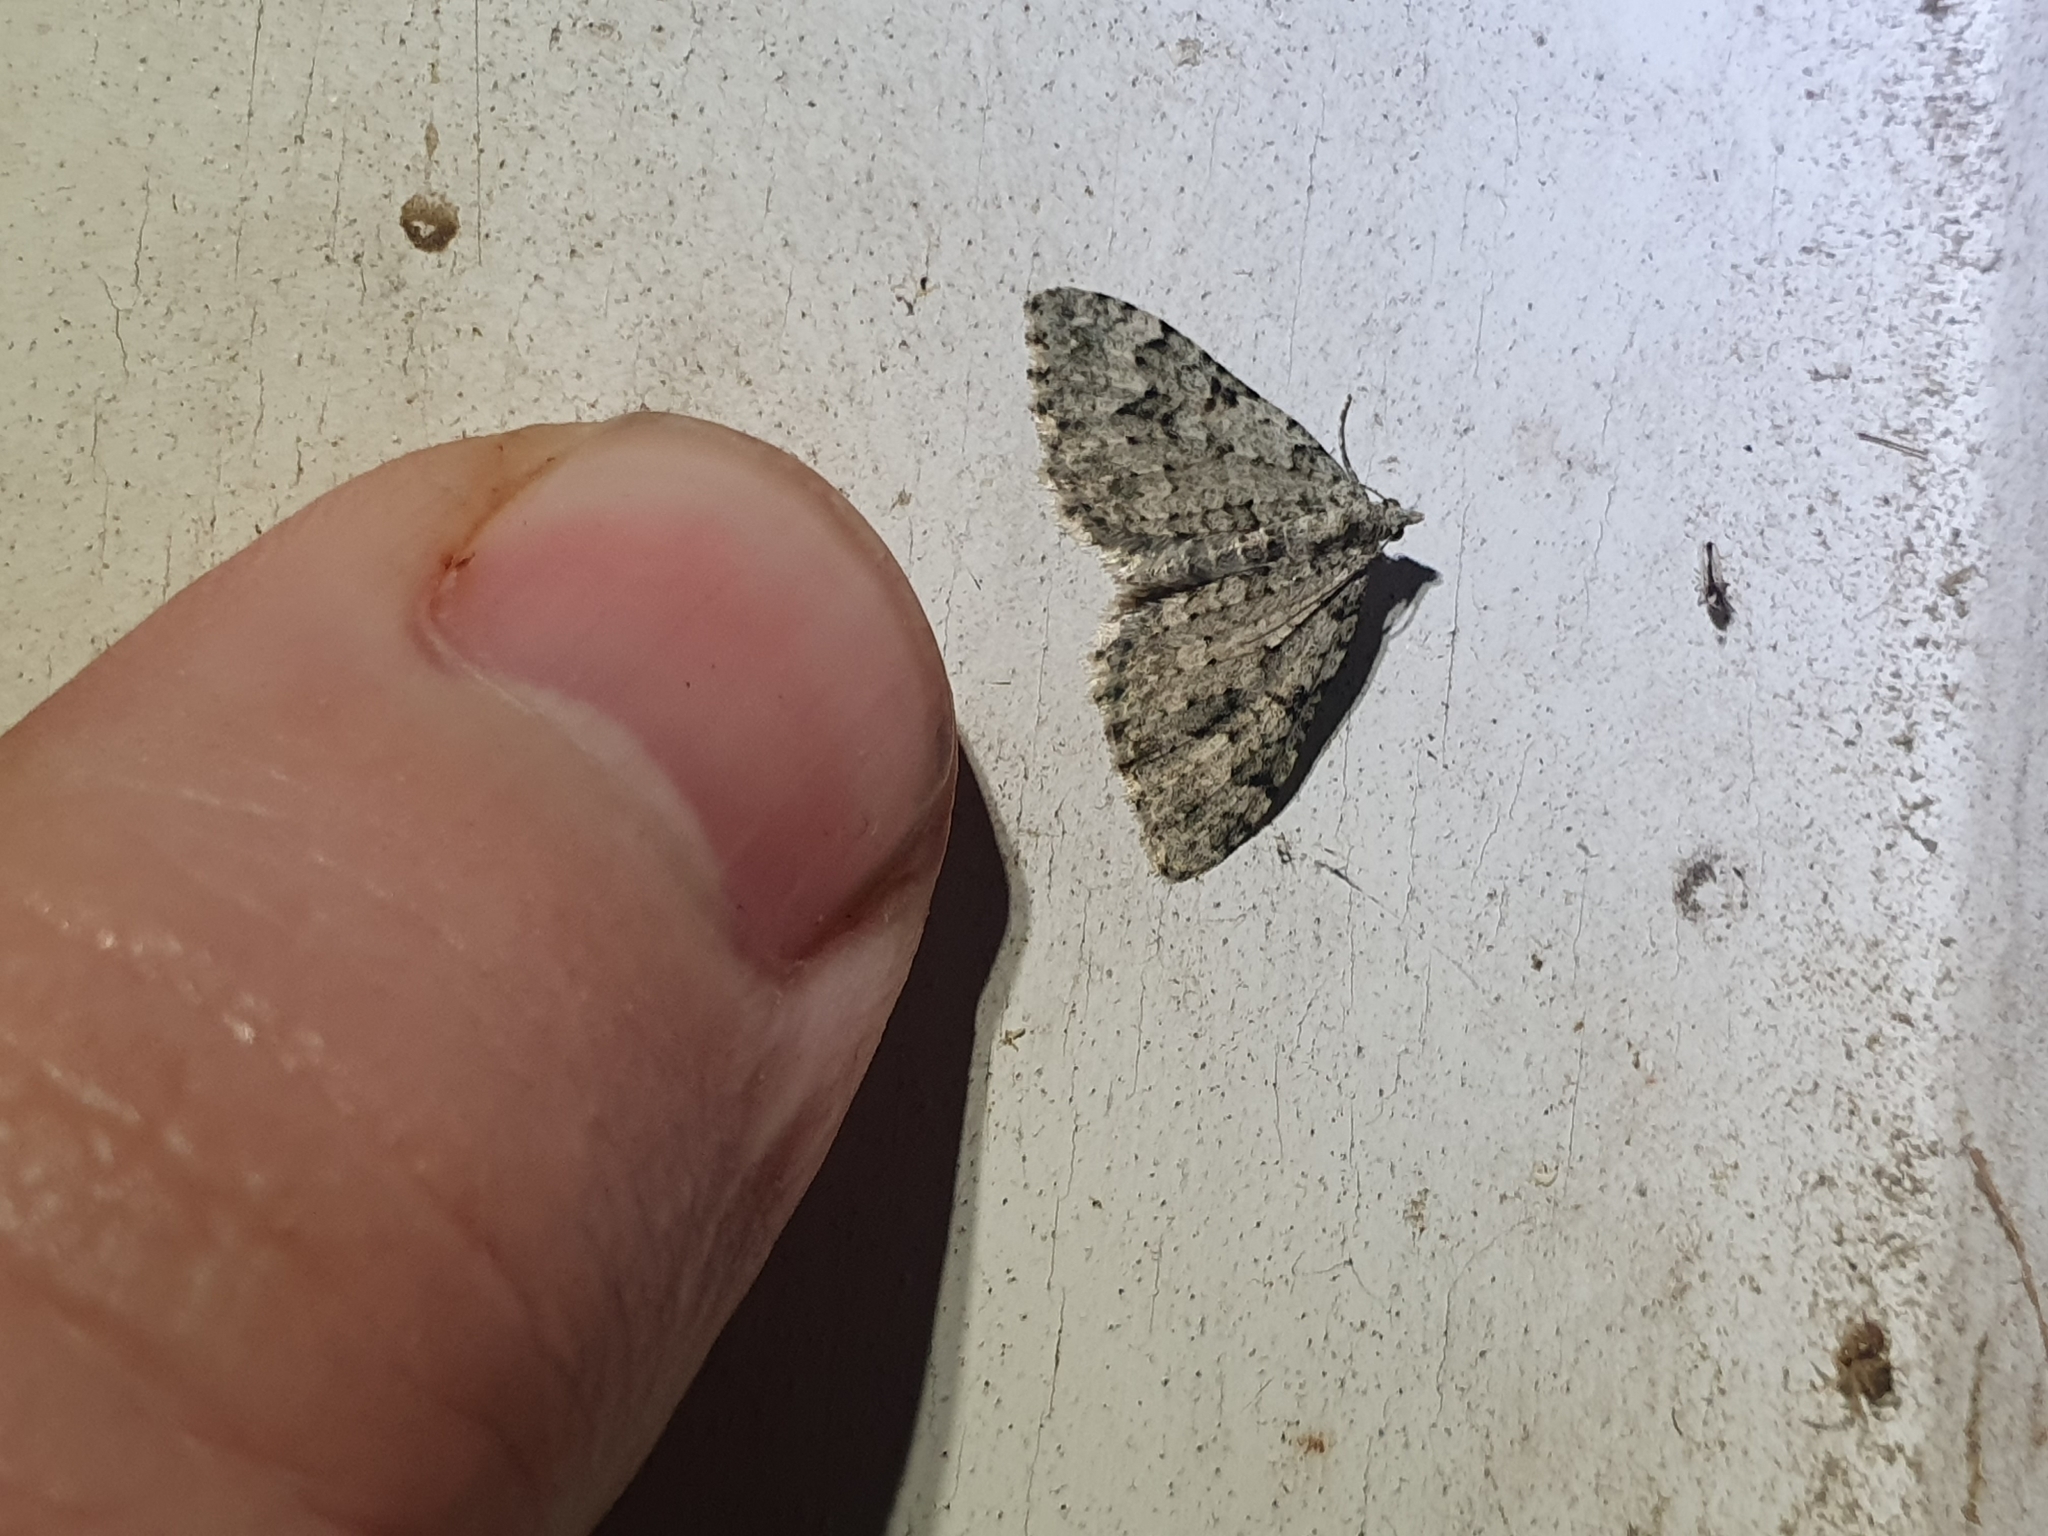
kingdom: Animalia
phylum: Arthropoda
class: Insecta
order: Lepidoptera
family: Geometridae
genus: Helastia
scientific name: Helastia cinerearia
